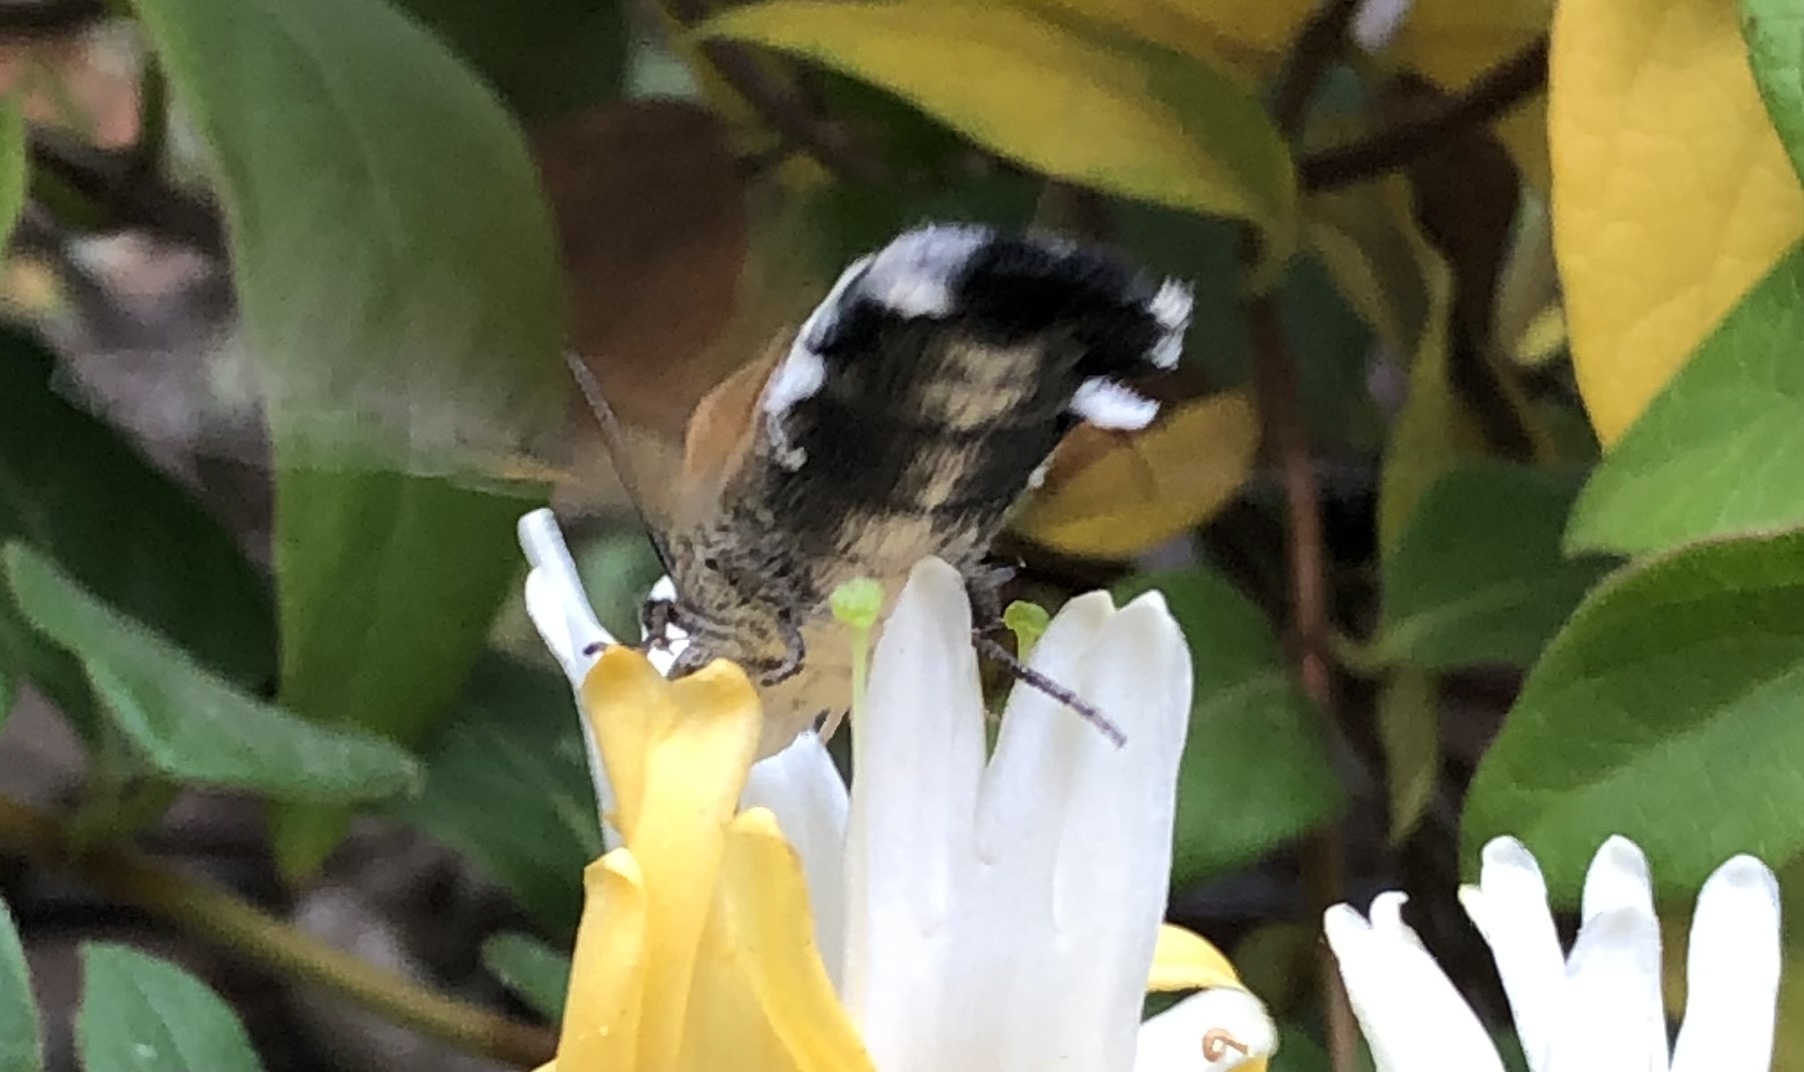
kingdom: Animalia
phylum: Arthropoda
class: Insecta
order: Lepidoptera
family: Sphingidae
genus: Macroglossum
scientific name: Macroglossum stellatarum
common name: Humming-bird hawk-moth
